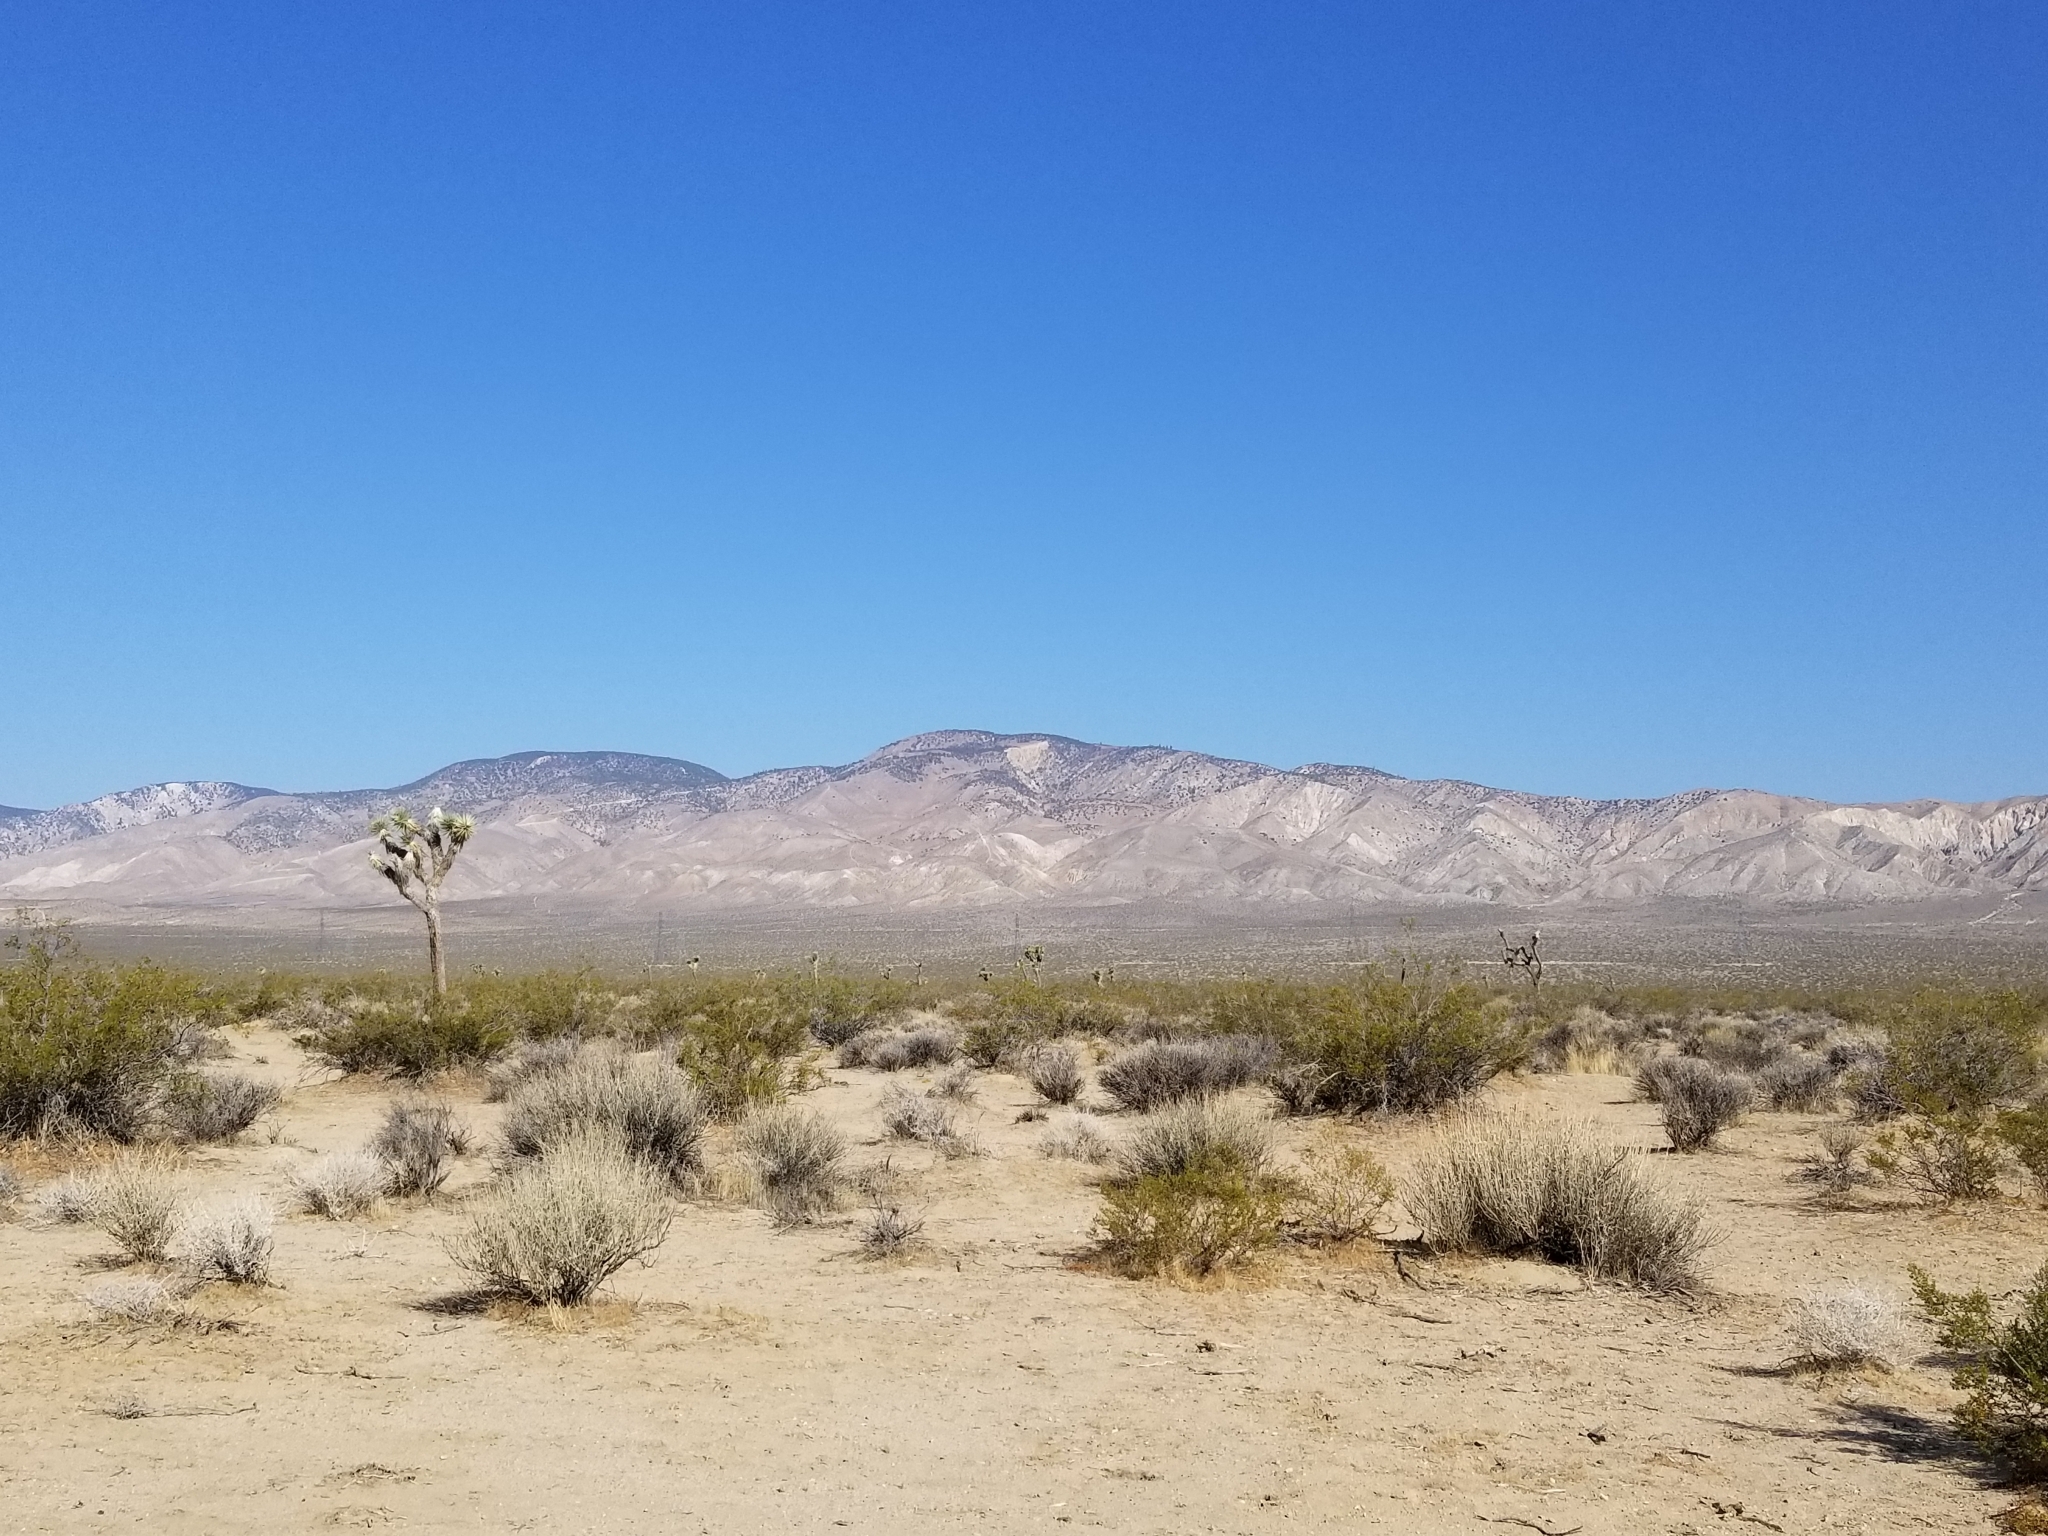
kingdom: Plantae
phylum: Tracheophyta
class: Liliopsida
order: Asparagales
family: Asparagaceae
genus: Yucca
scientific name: Yucca brevifolia
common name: Joshua tree
